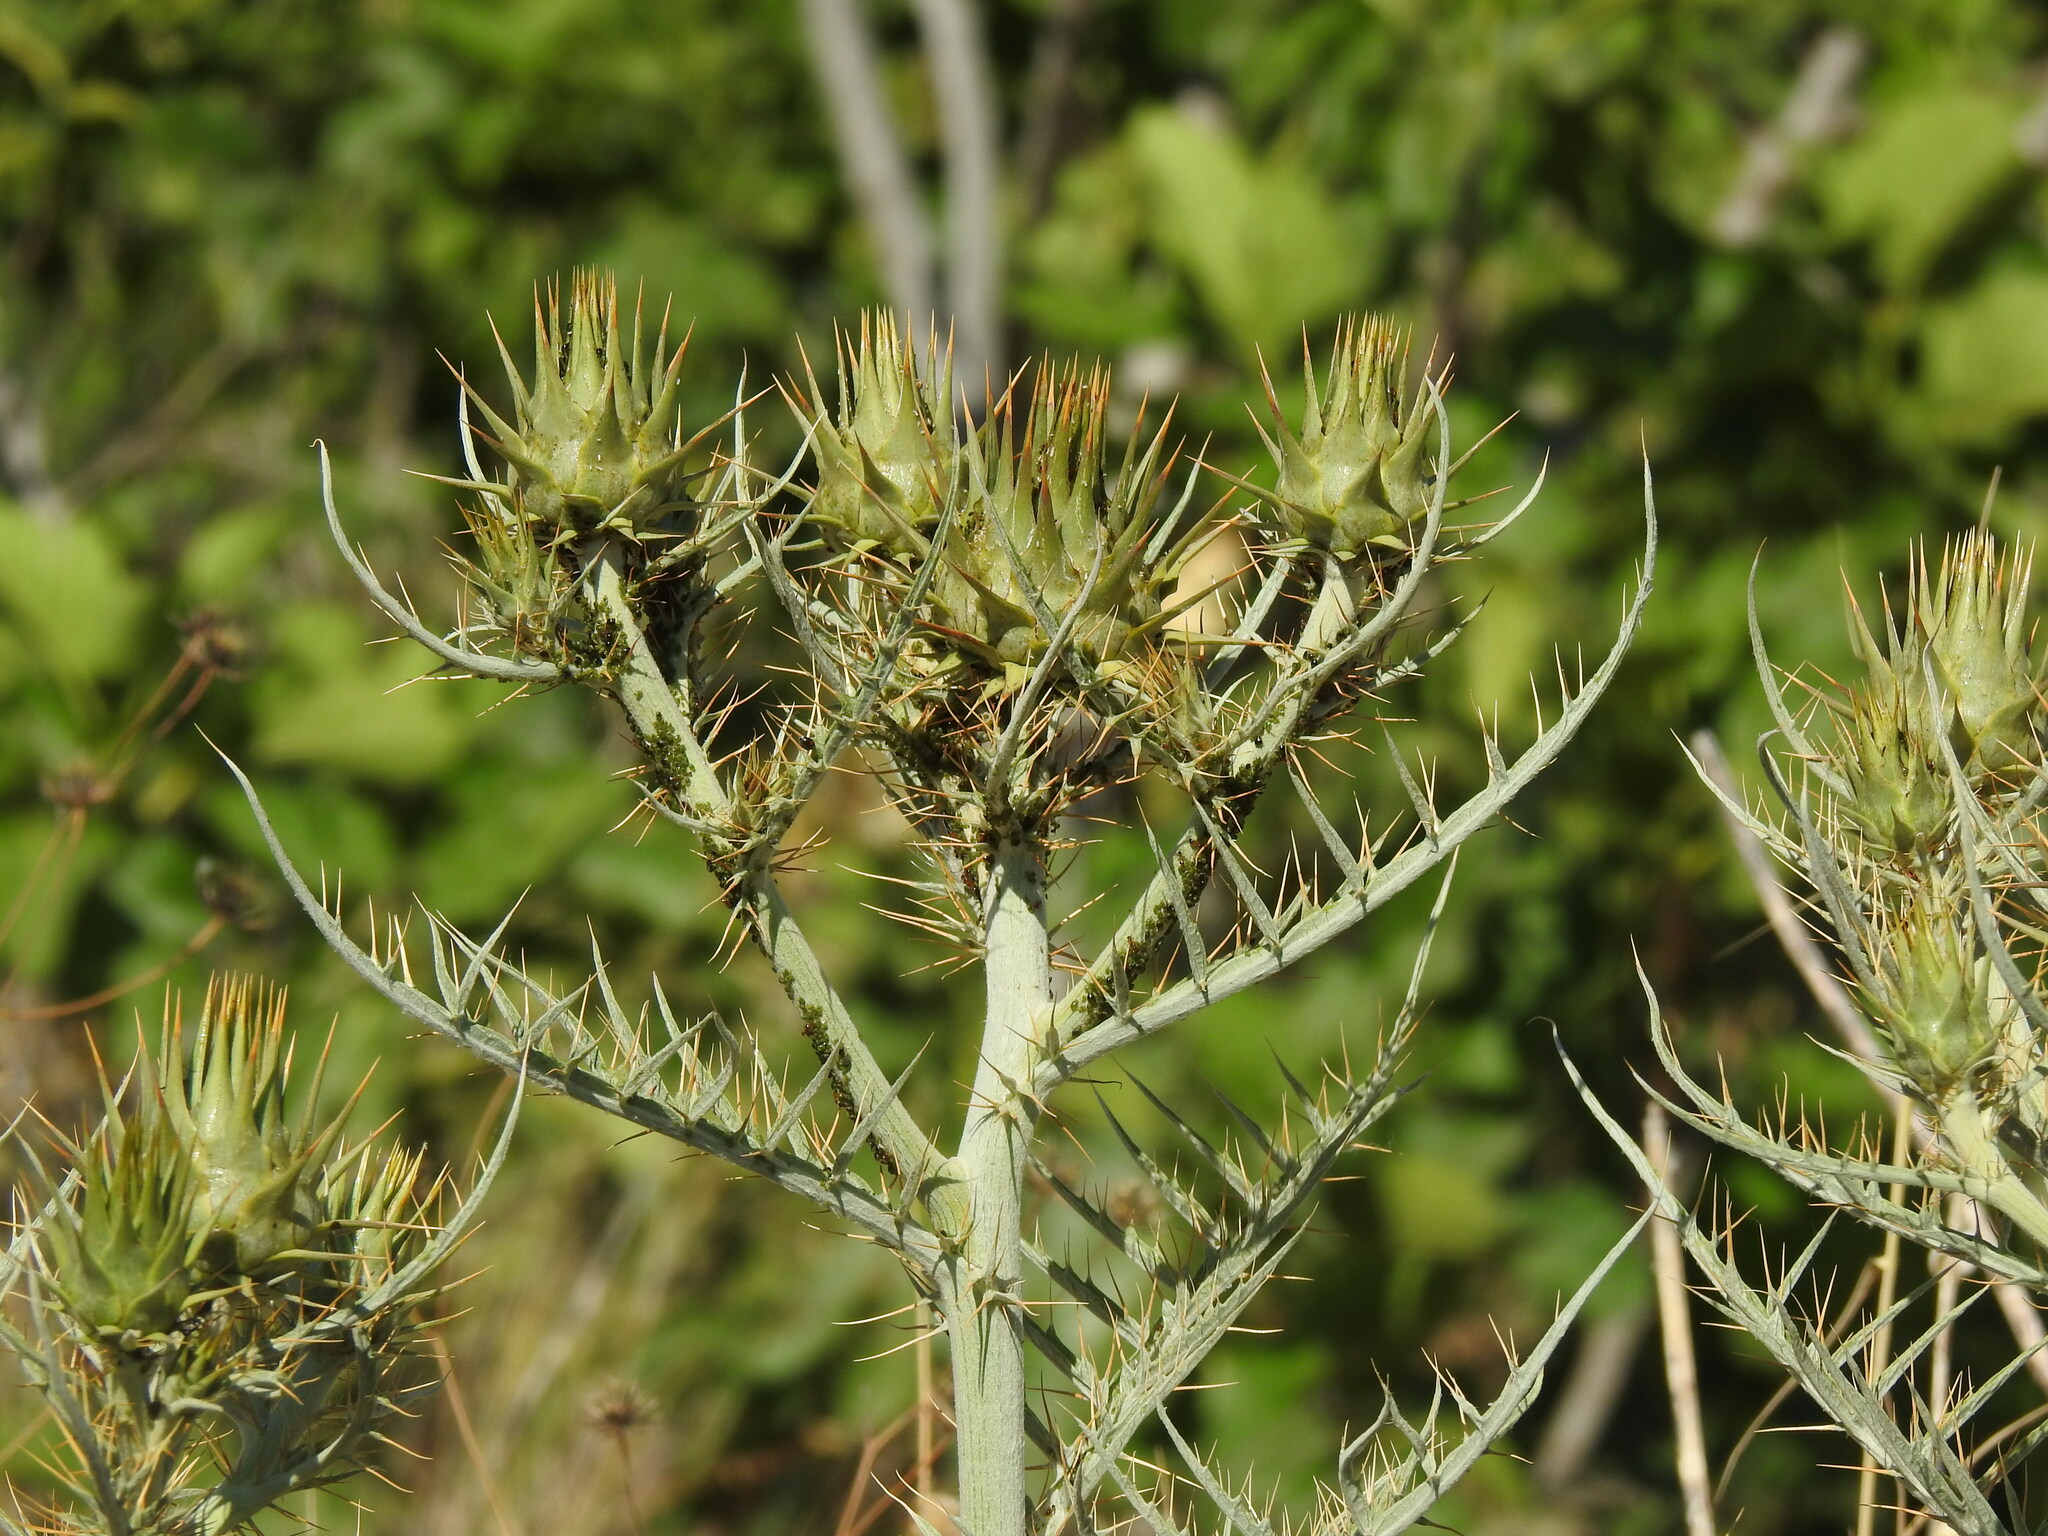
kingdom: Plantae
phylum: Tracheophyta
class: Magnoliopsida
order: Asterales
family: Asteraceae
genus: Cynara
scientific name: Cynara cardunculus
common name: Globe artichoke
